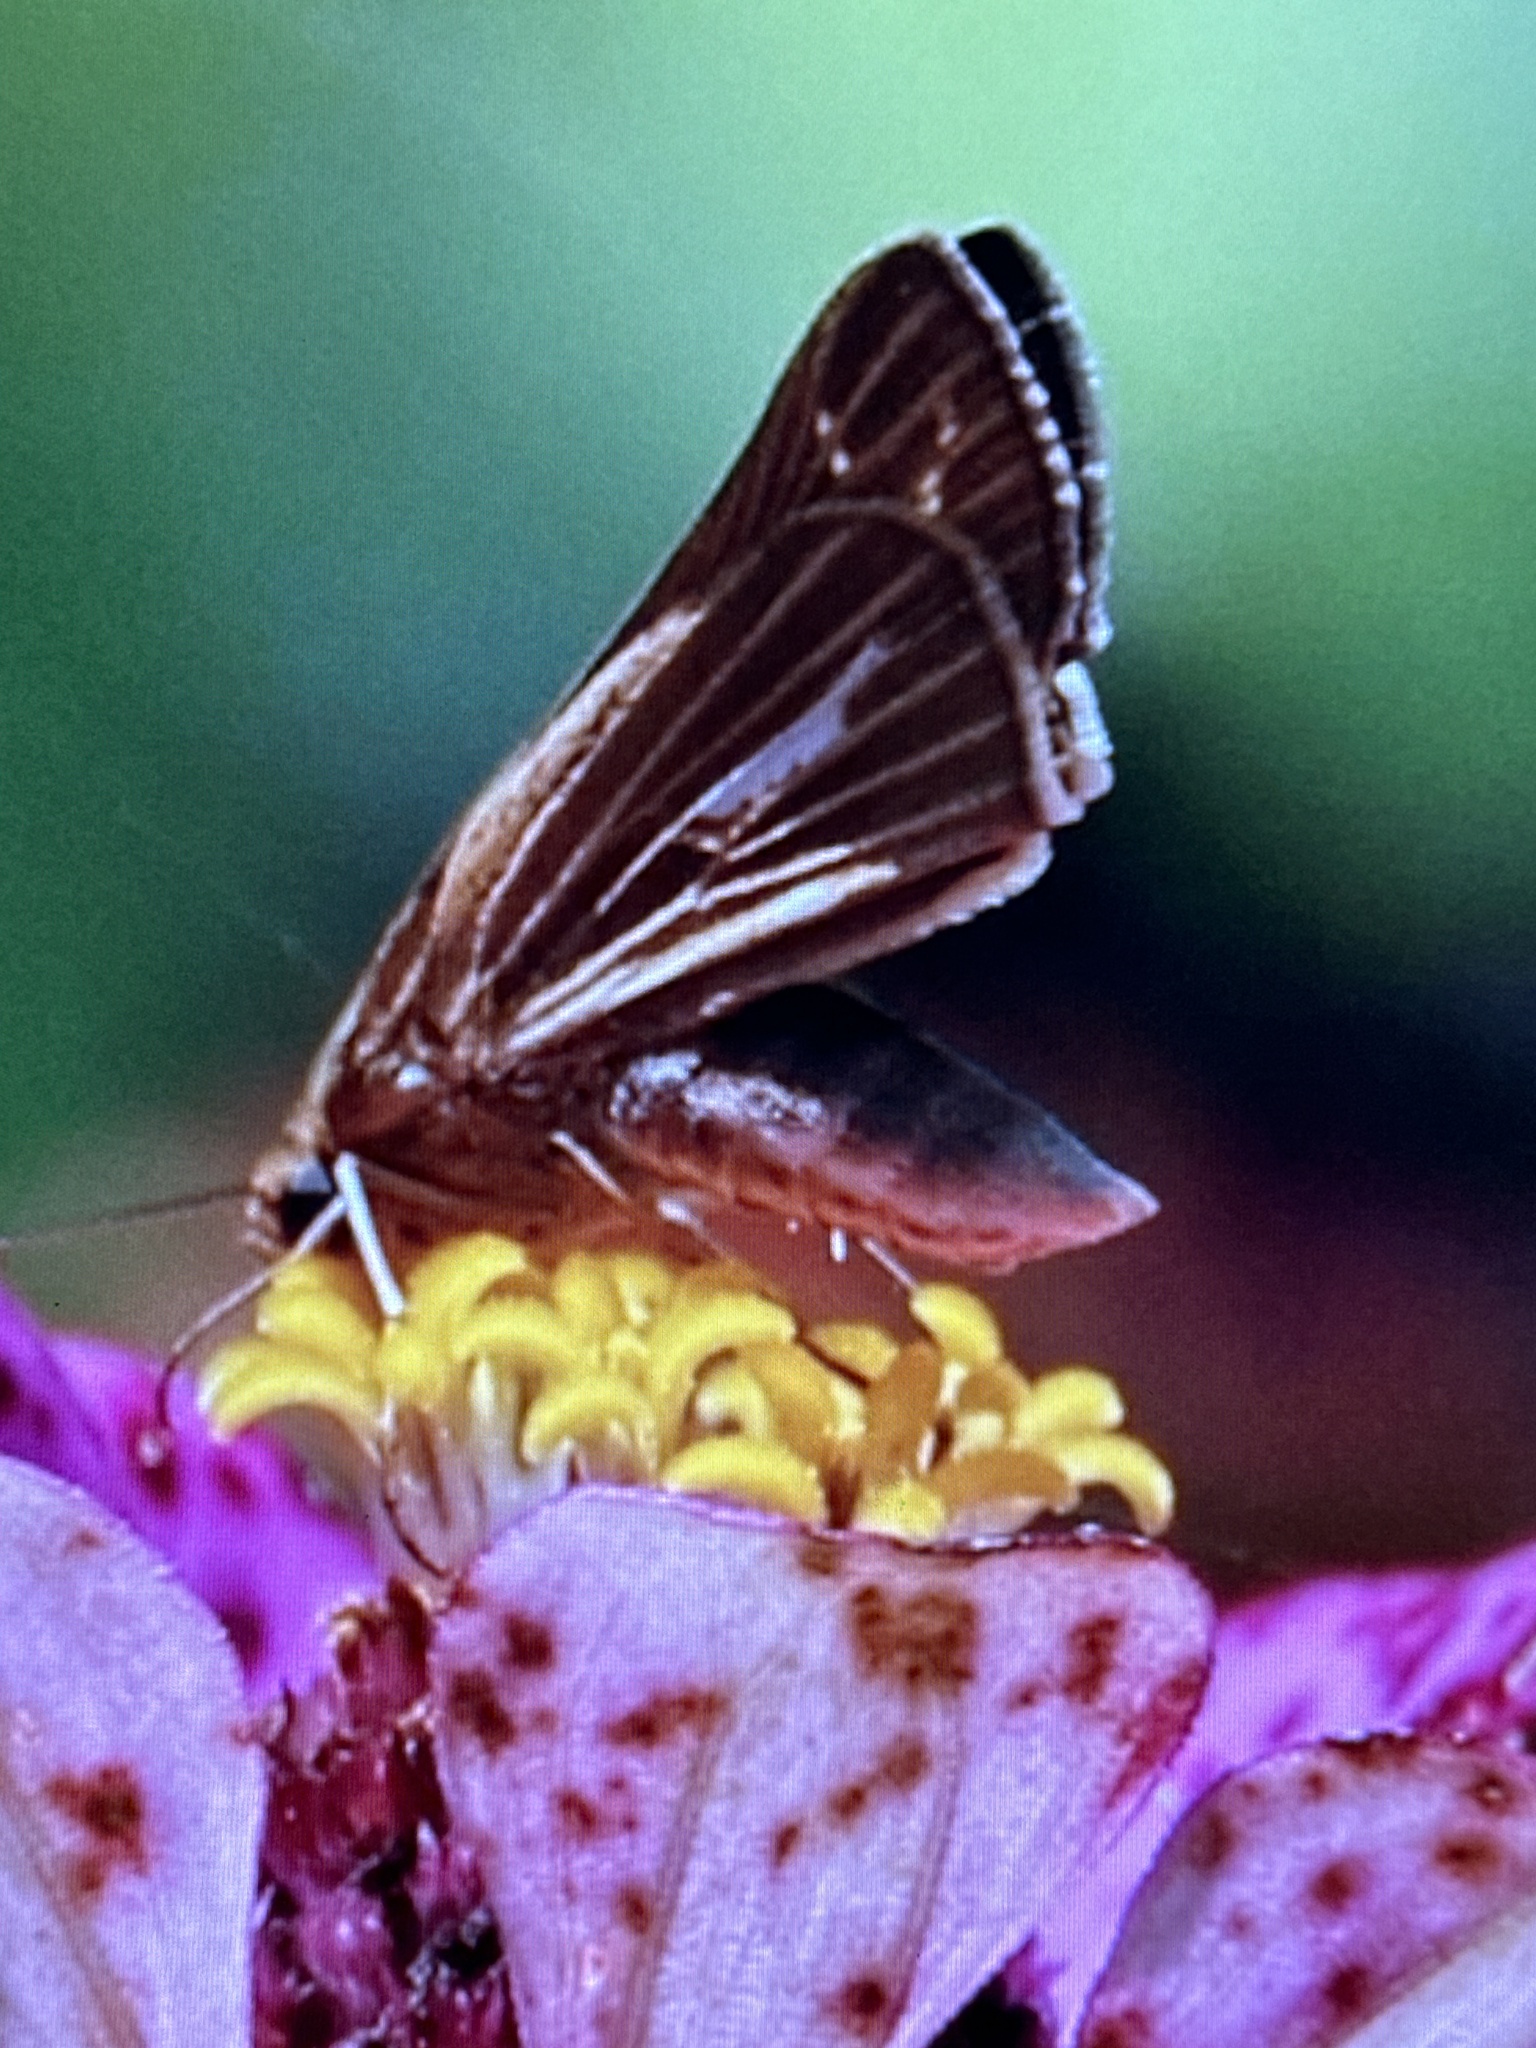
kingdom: Animalia
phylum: Arthropoda
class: Insecta
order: Lepidoptera
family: Hesperiidae
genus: Panoquina
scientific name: Panoquina panoquin
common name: Salt marsh skipper
